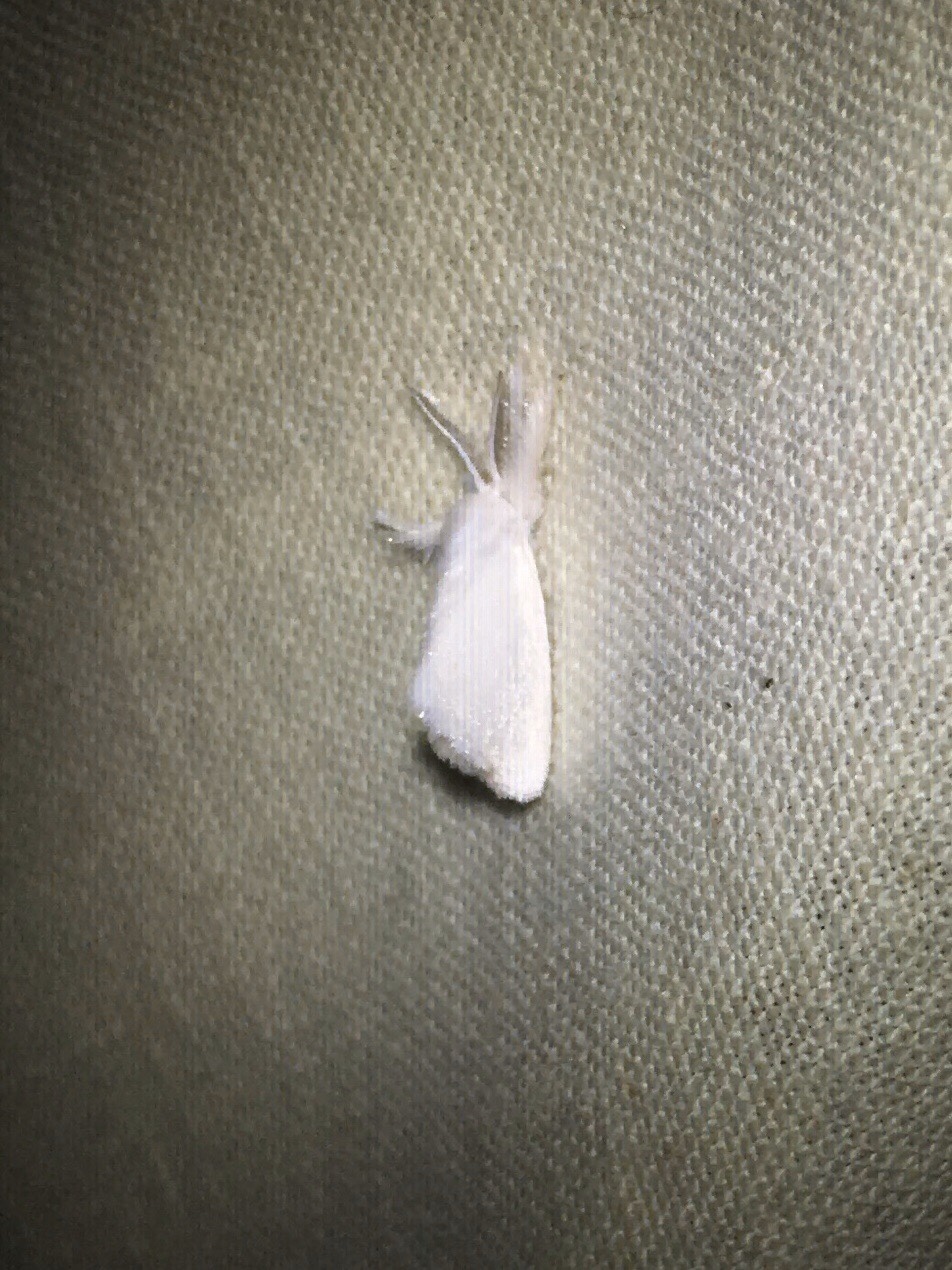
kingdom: Animalia
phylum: Arthropoda
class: Insecta
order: Lepidoptera
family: Limacodidae
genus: Alarodia
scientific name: Alarodia slossoniae
